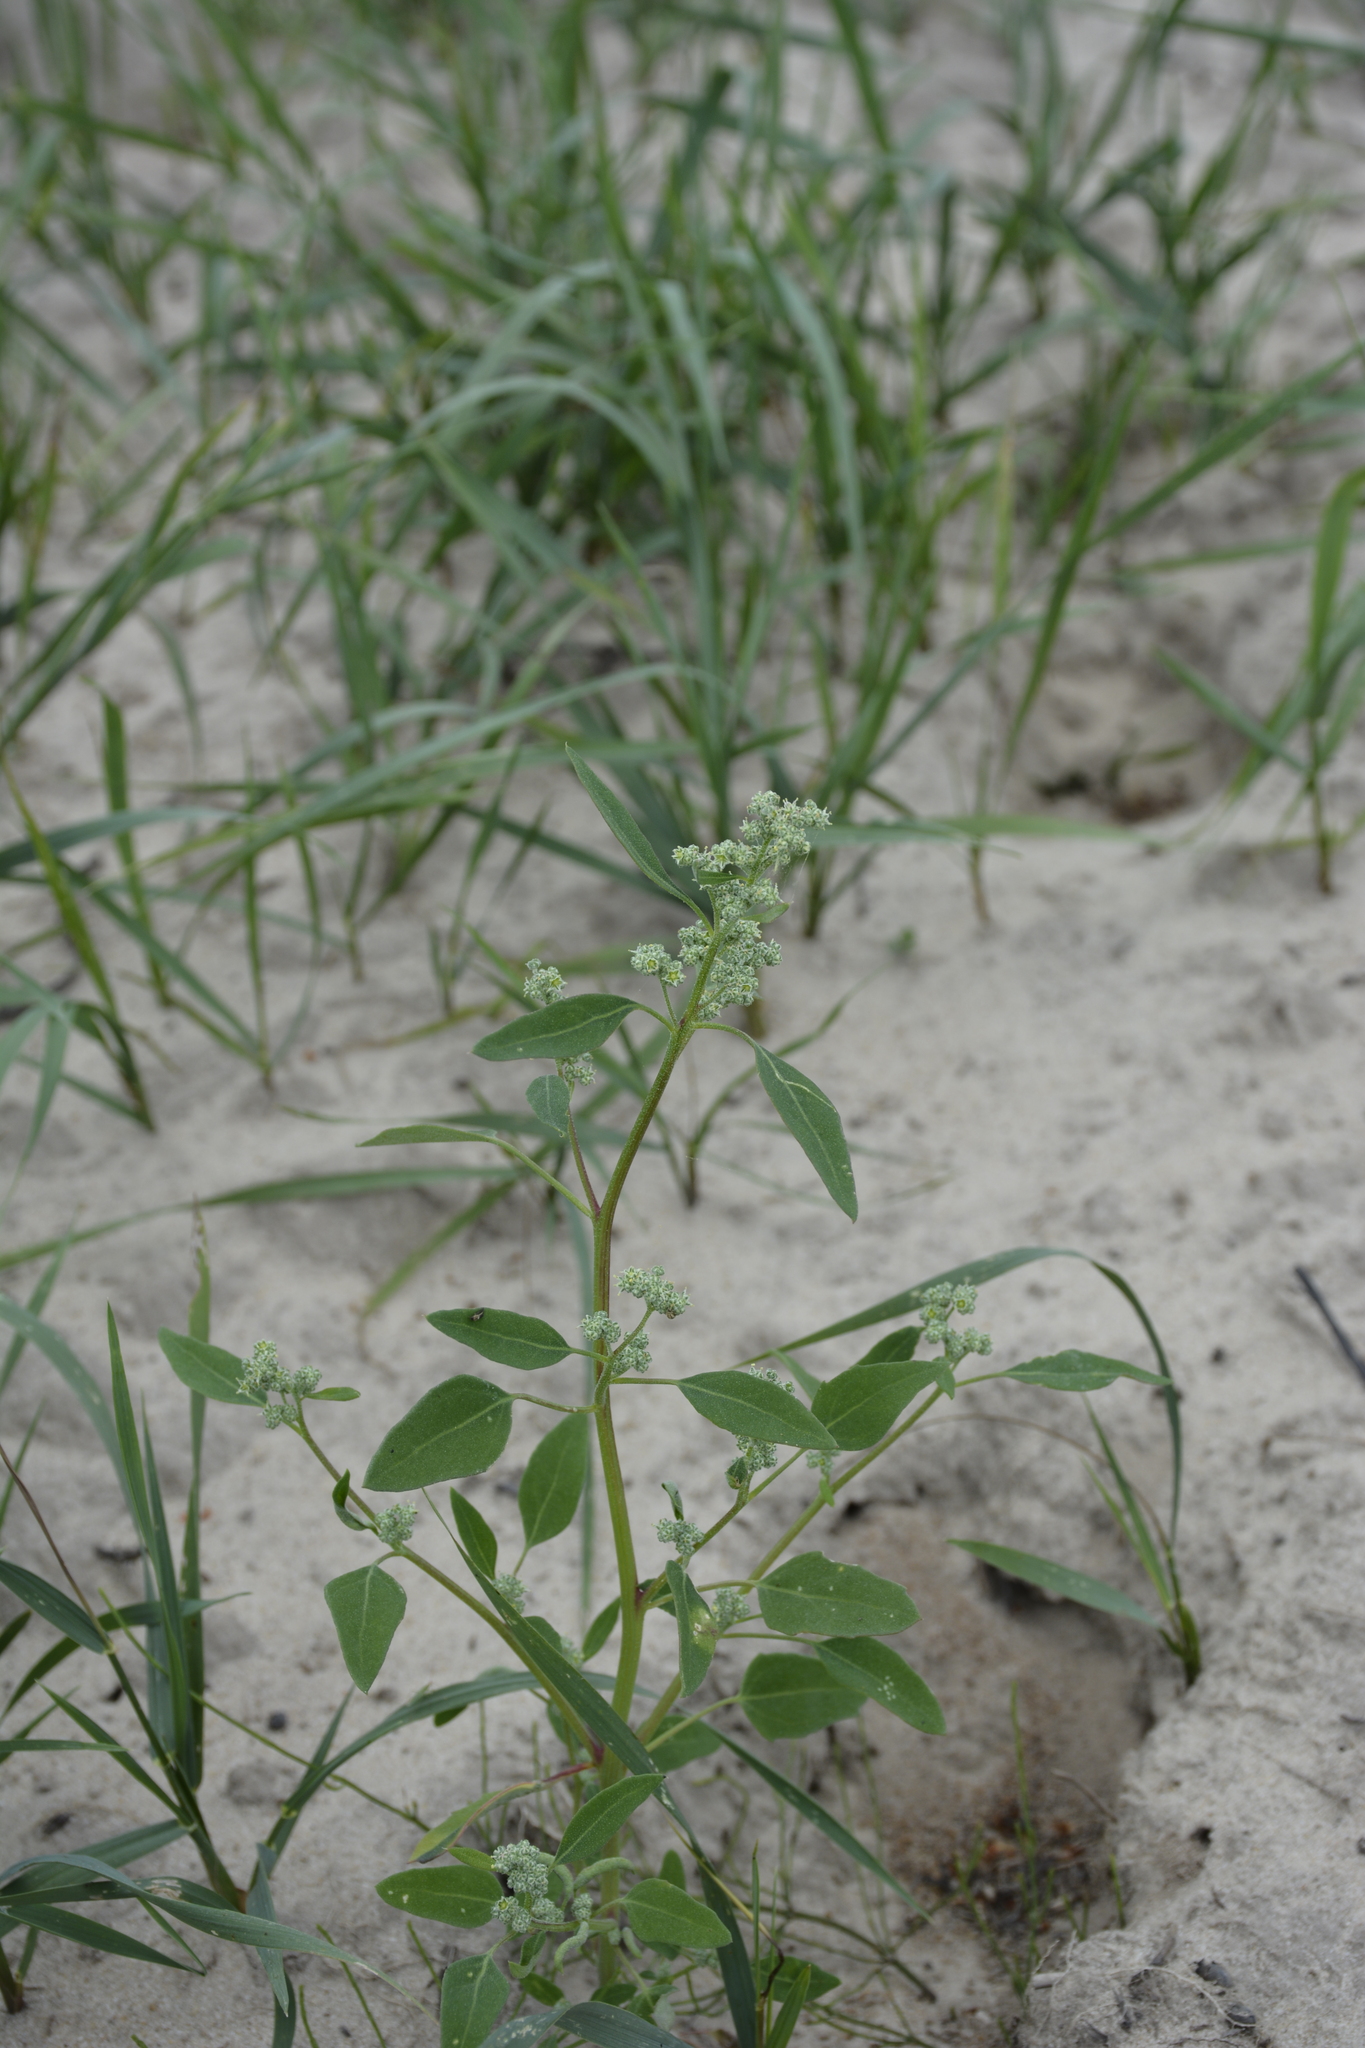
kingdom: Plantae
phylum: Tracheophyta
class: Magnoliopsida
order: Caryophyllales
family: Amaranthaceae
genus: Chenopodium
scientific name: Chenopodium album
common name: Fat-hen
